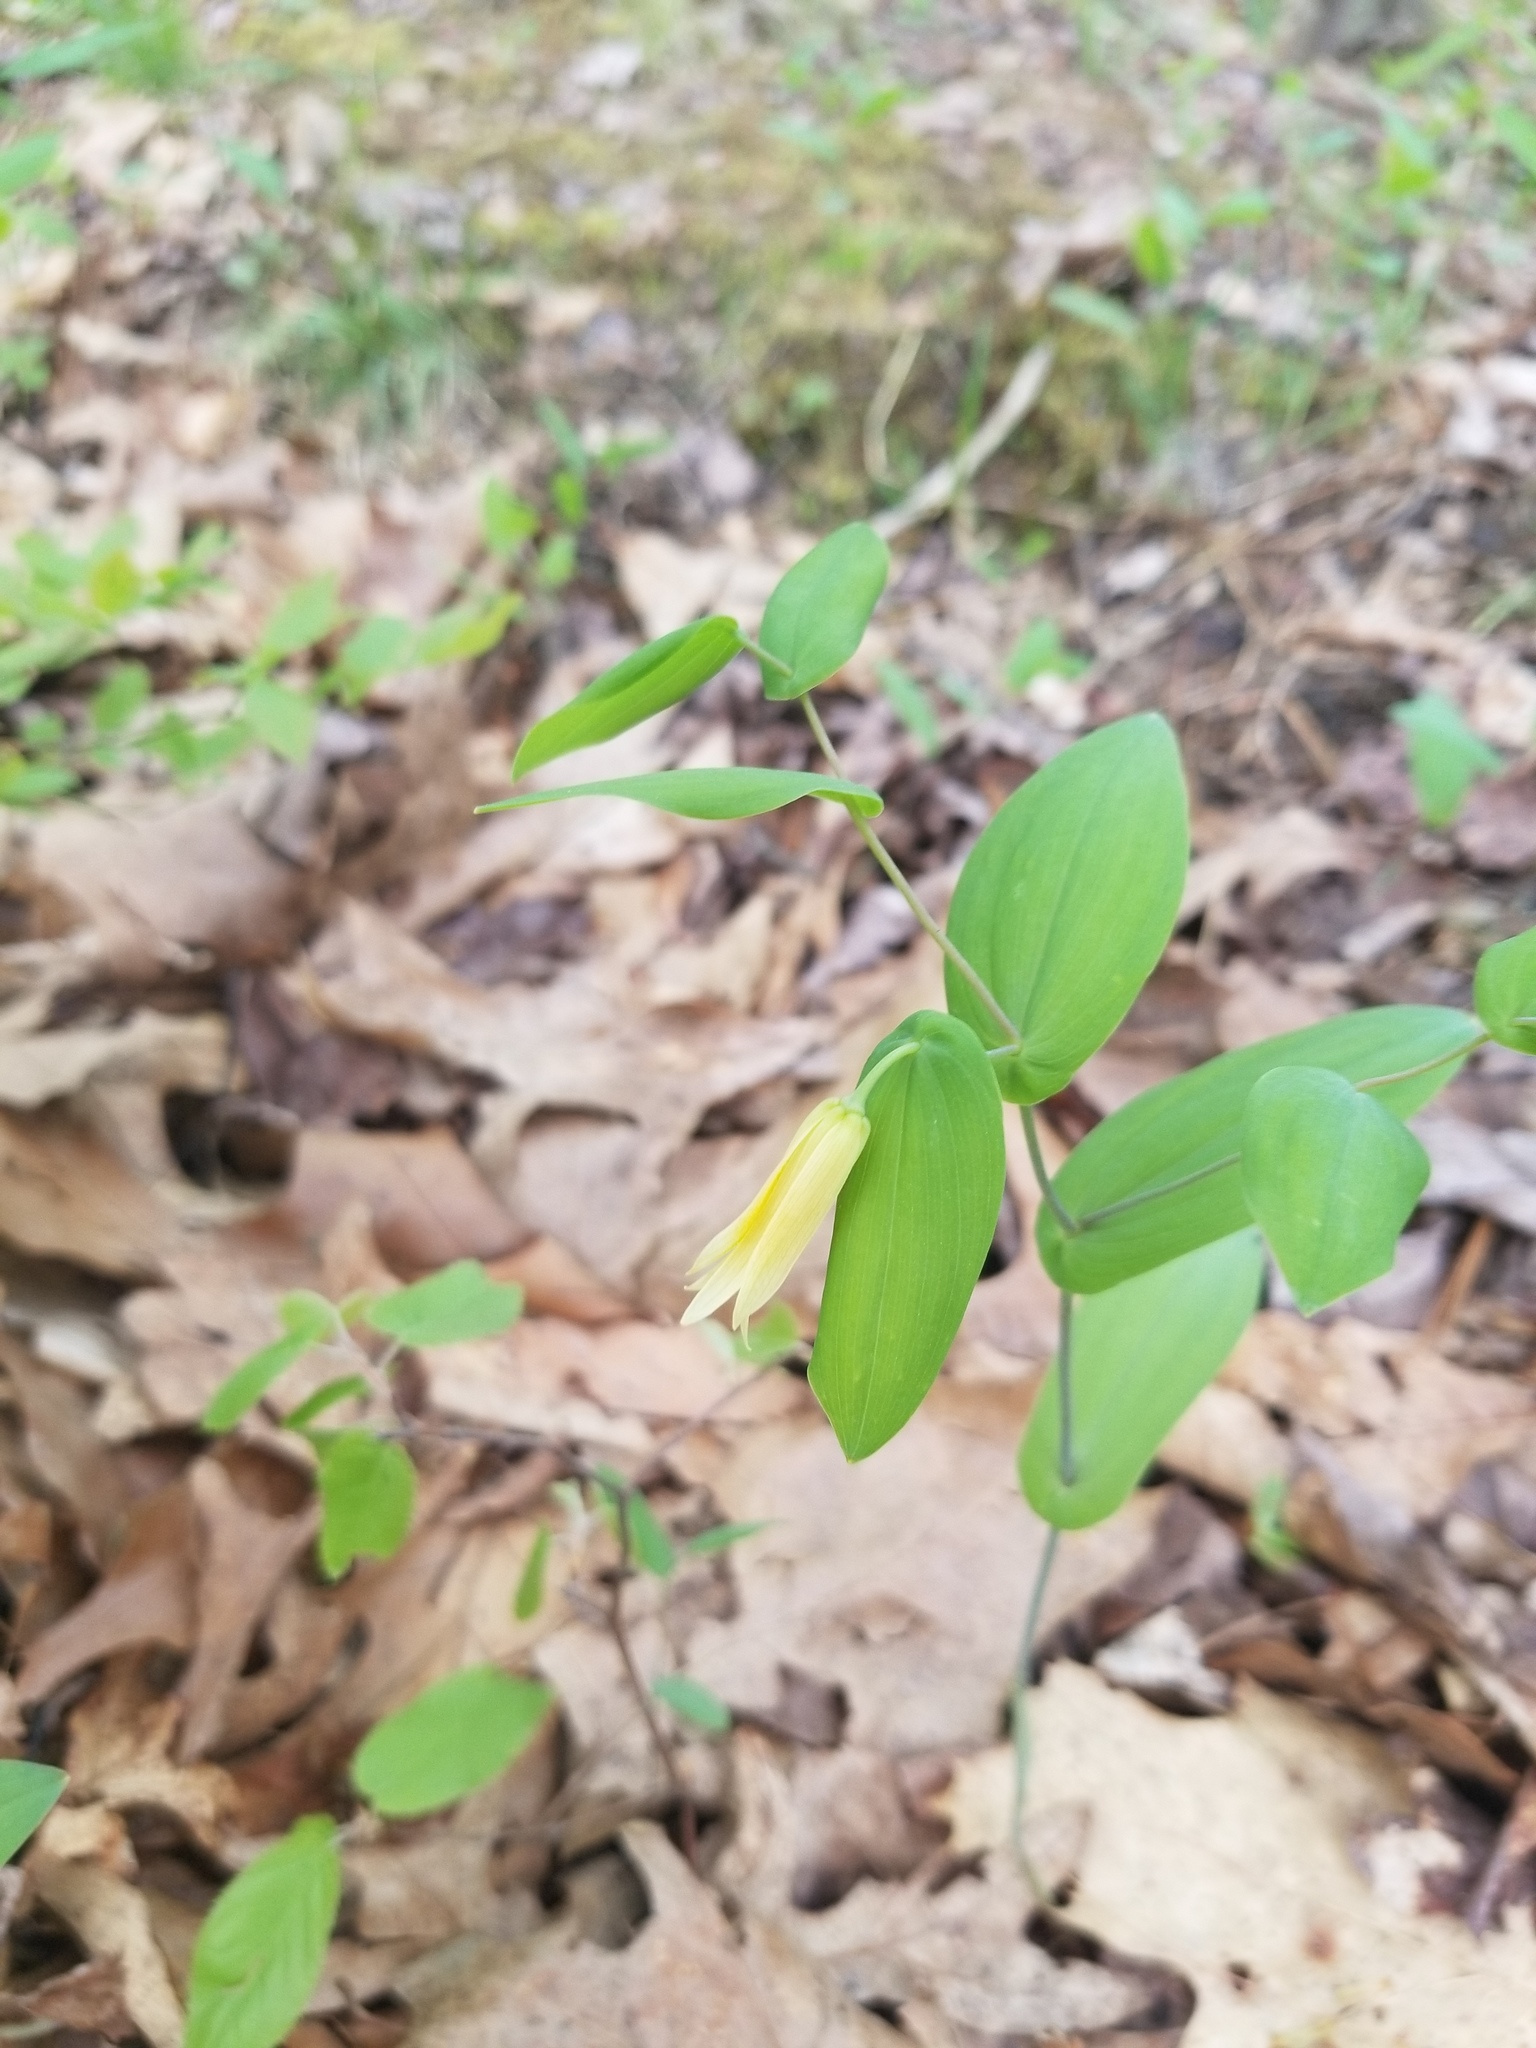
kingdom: Plantae
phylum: Tracheophyta
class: Liliopsida
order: Liliales
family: Colchicaceae
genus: Uvularia
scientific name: Uvularia perfoliata
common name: Perfoliate bellwort
